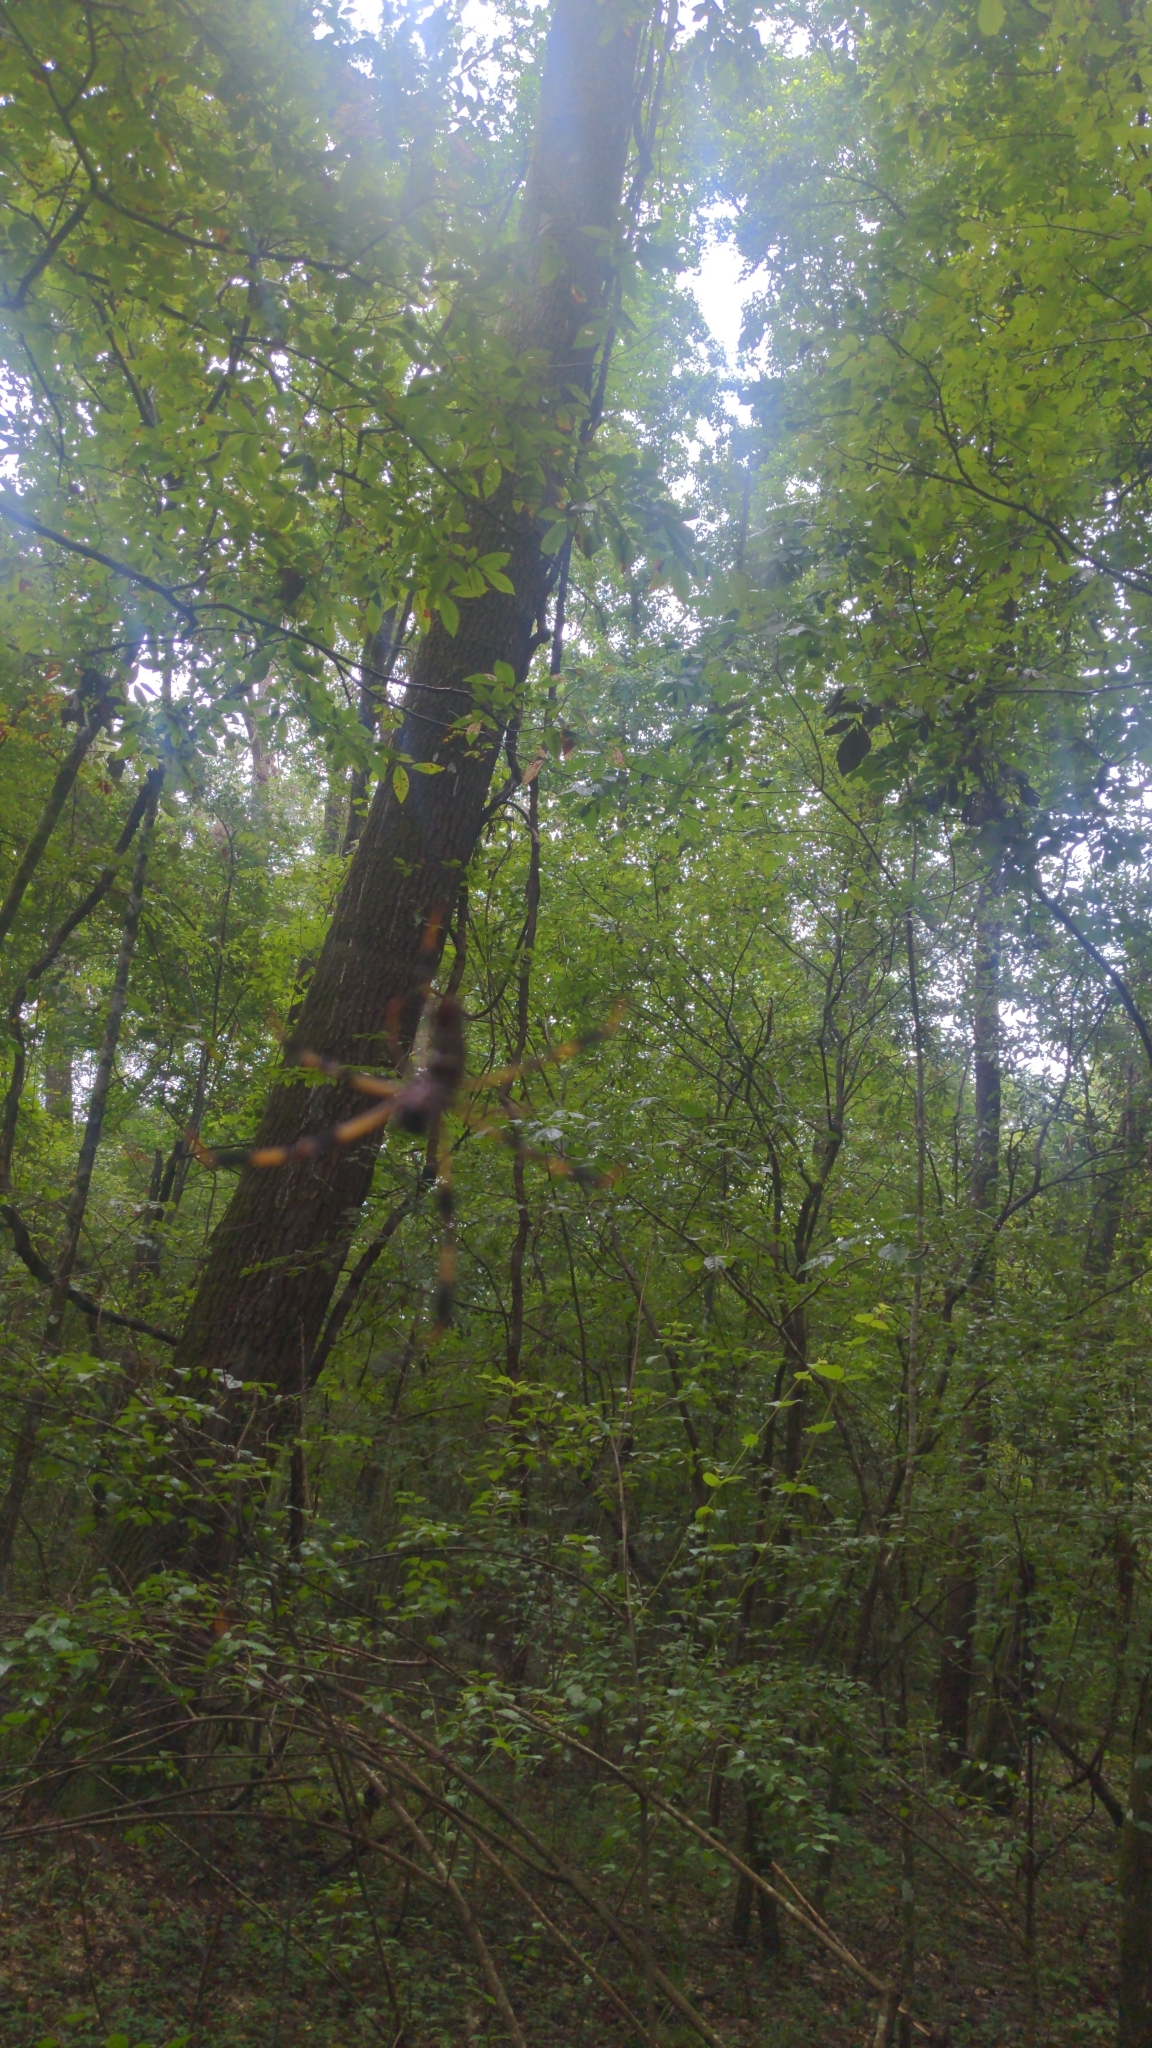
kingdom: Animalia
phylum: Arthropoda
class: Arachnida
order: Araneae
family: Araneidae
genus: Trichonephila
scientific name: Trichonephila clavipes
